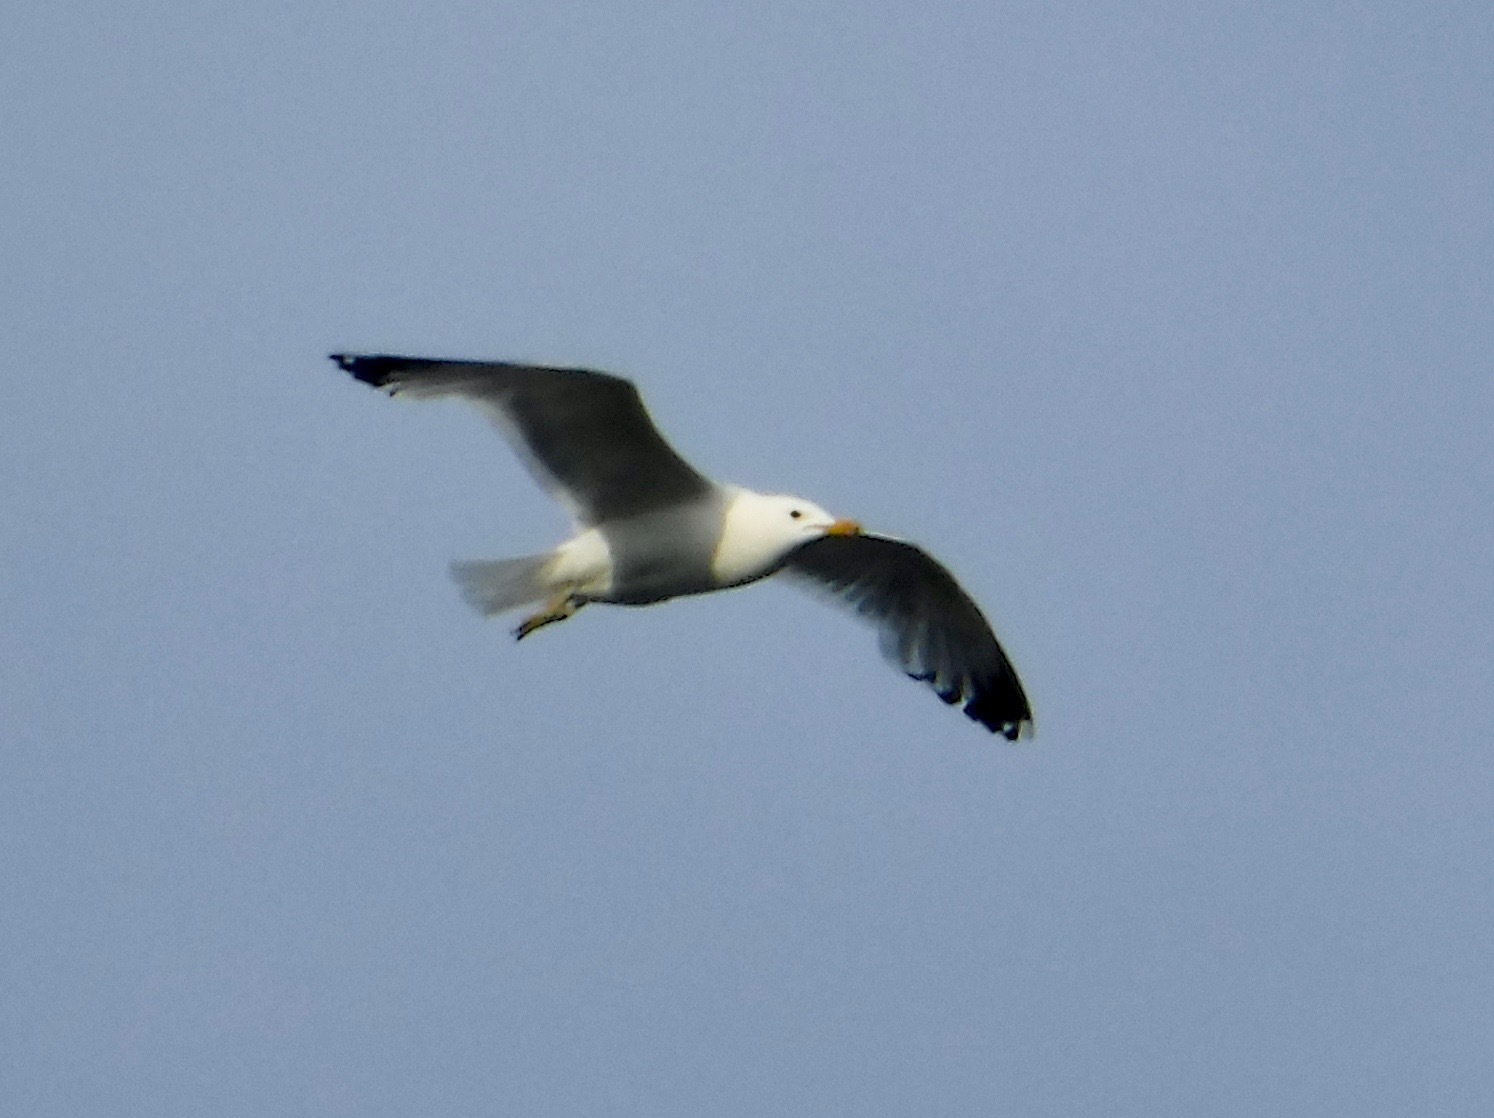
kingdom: Animalia
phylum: Chordata
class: Aves
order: Charadriiformes
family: Laridae
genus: Larus
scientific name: Larus californicus
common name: California gull
